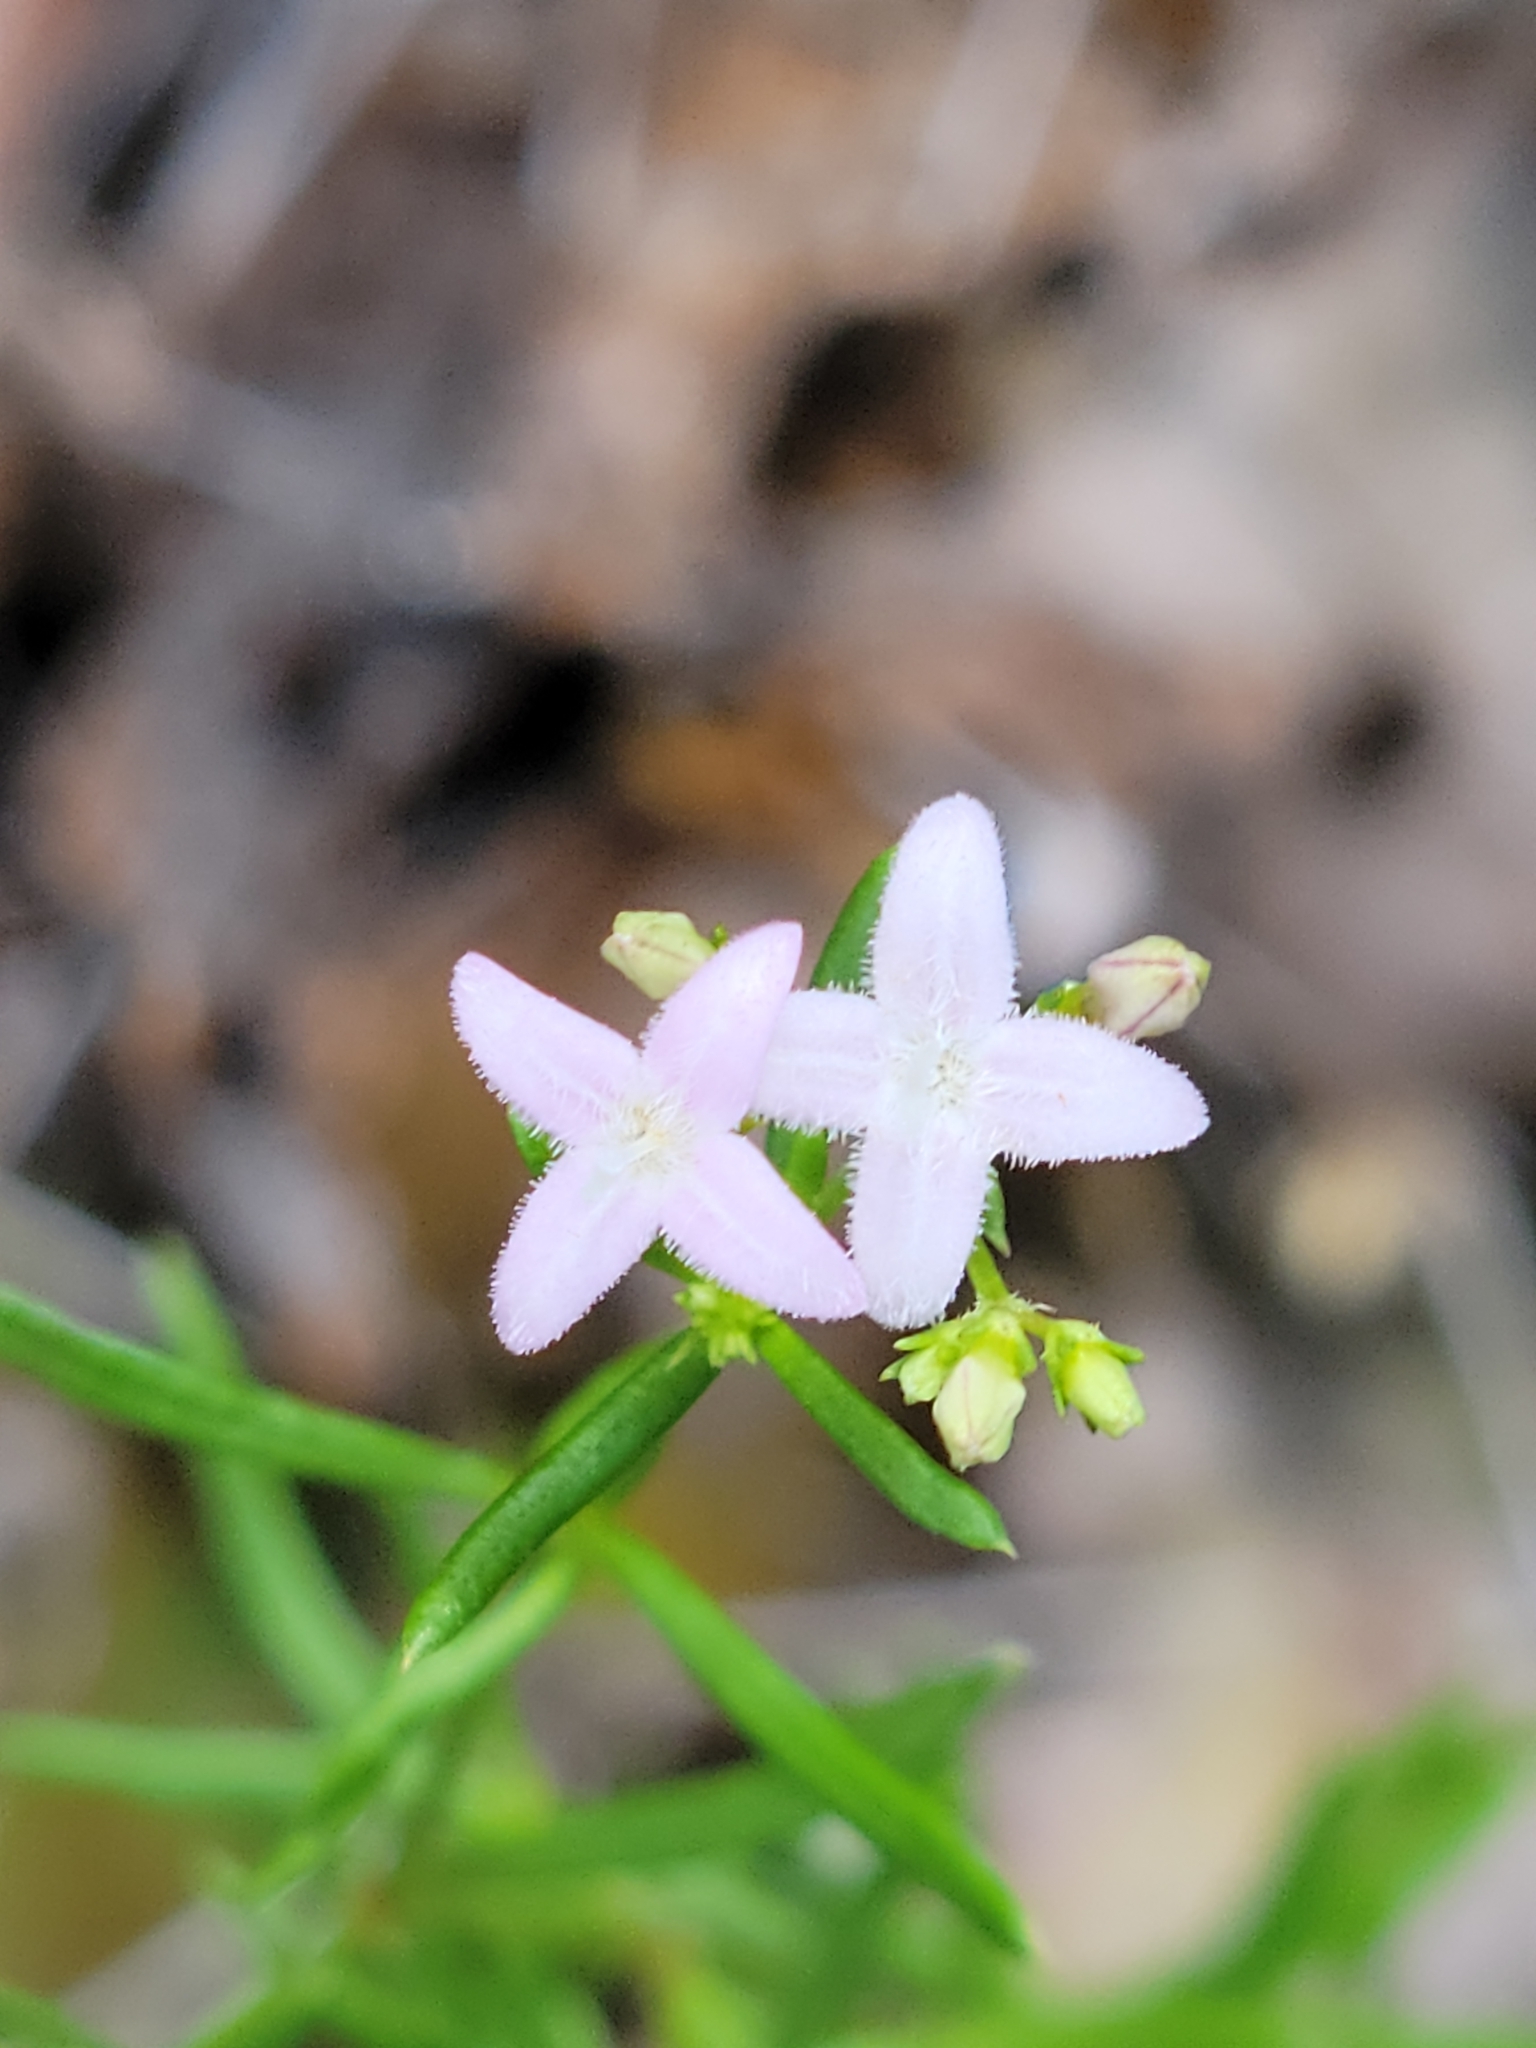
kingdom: Plantae
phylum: Tracheophyta
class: Magnoliopsida
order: Gentianales
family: Rubiaceae
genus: Stenaria
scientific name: Stenaria nigricans
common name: Diamondflowers
